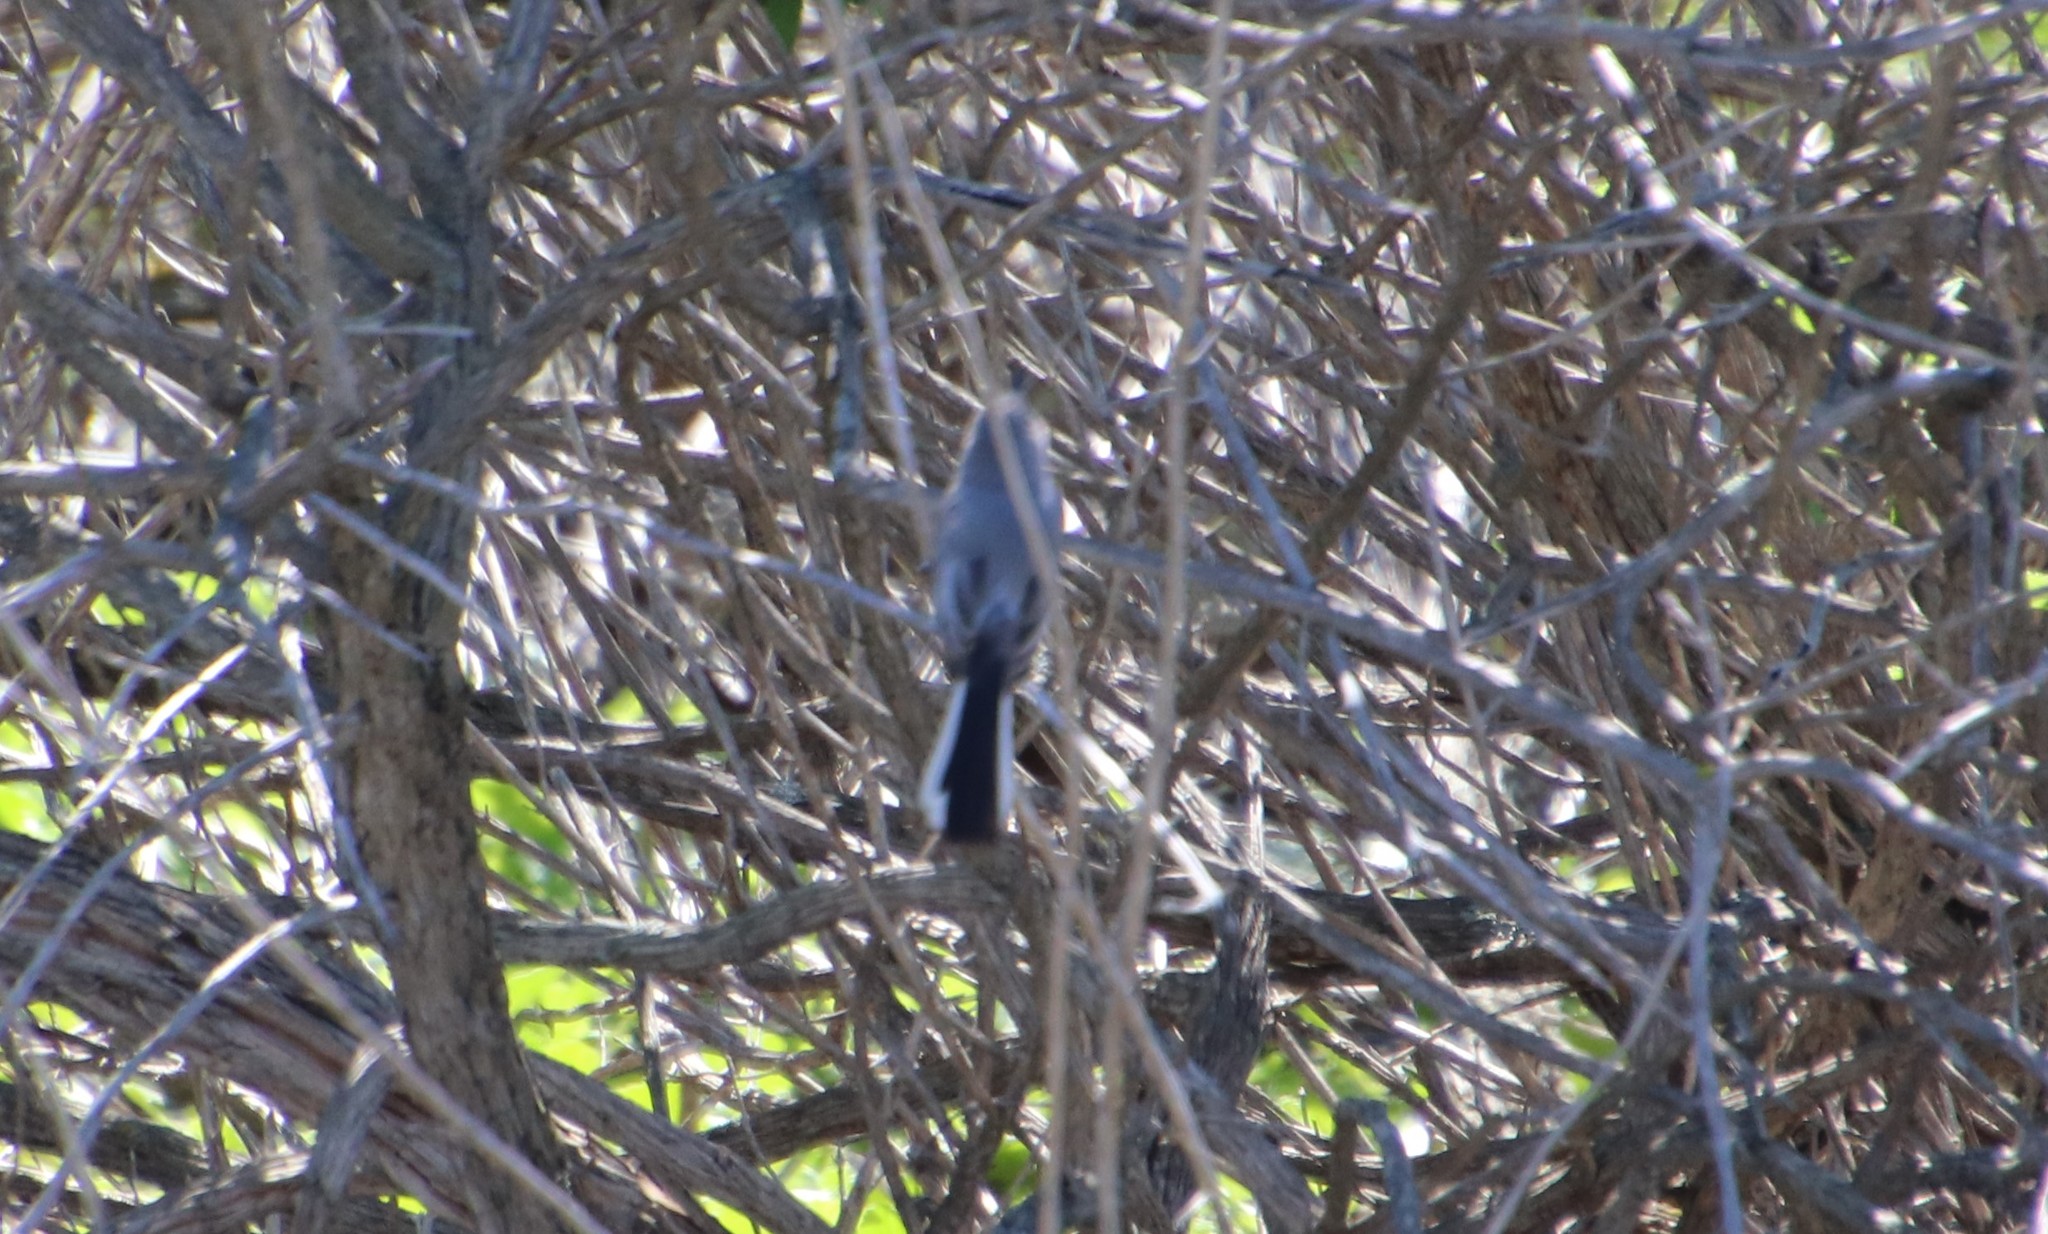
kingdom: Animalia
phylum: Chordata
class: Aves
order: Passeriformes
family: Polioptilidae
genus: Polioptila
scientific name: Polioptila caerulea
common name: Blue-gray gnatcatcher
